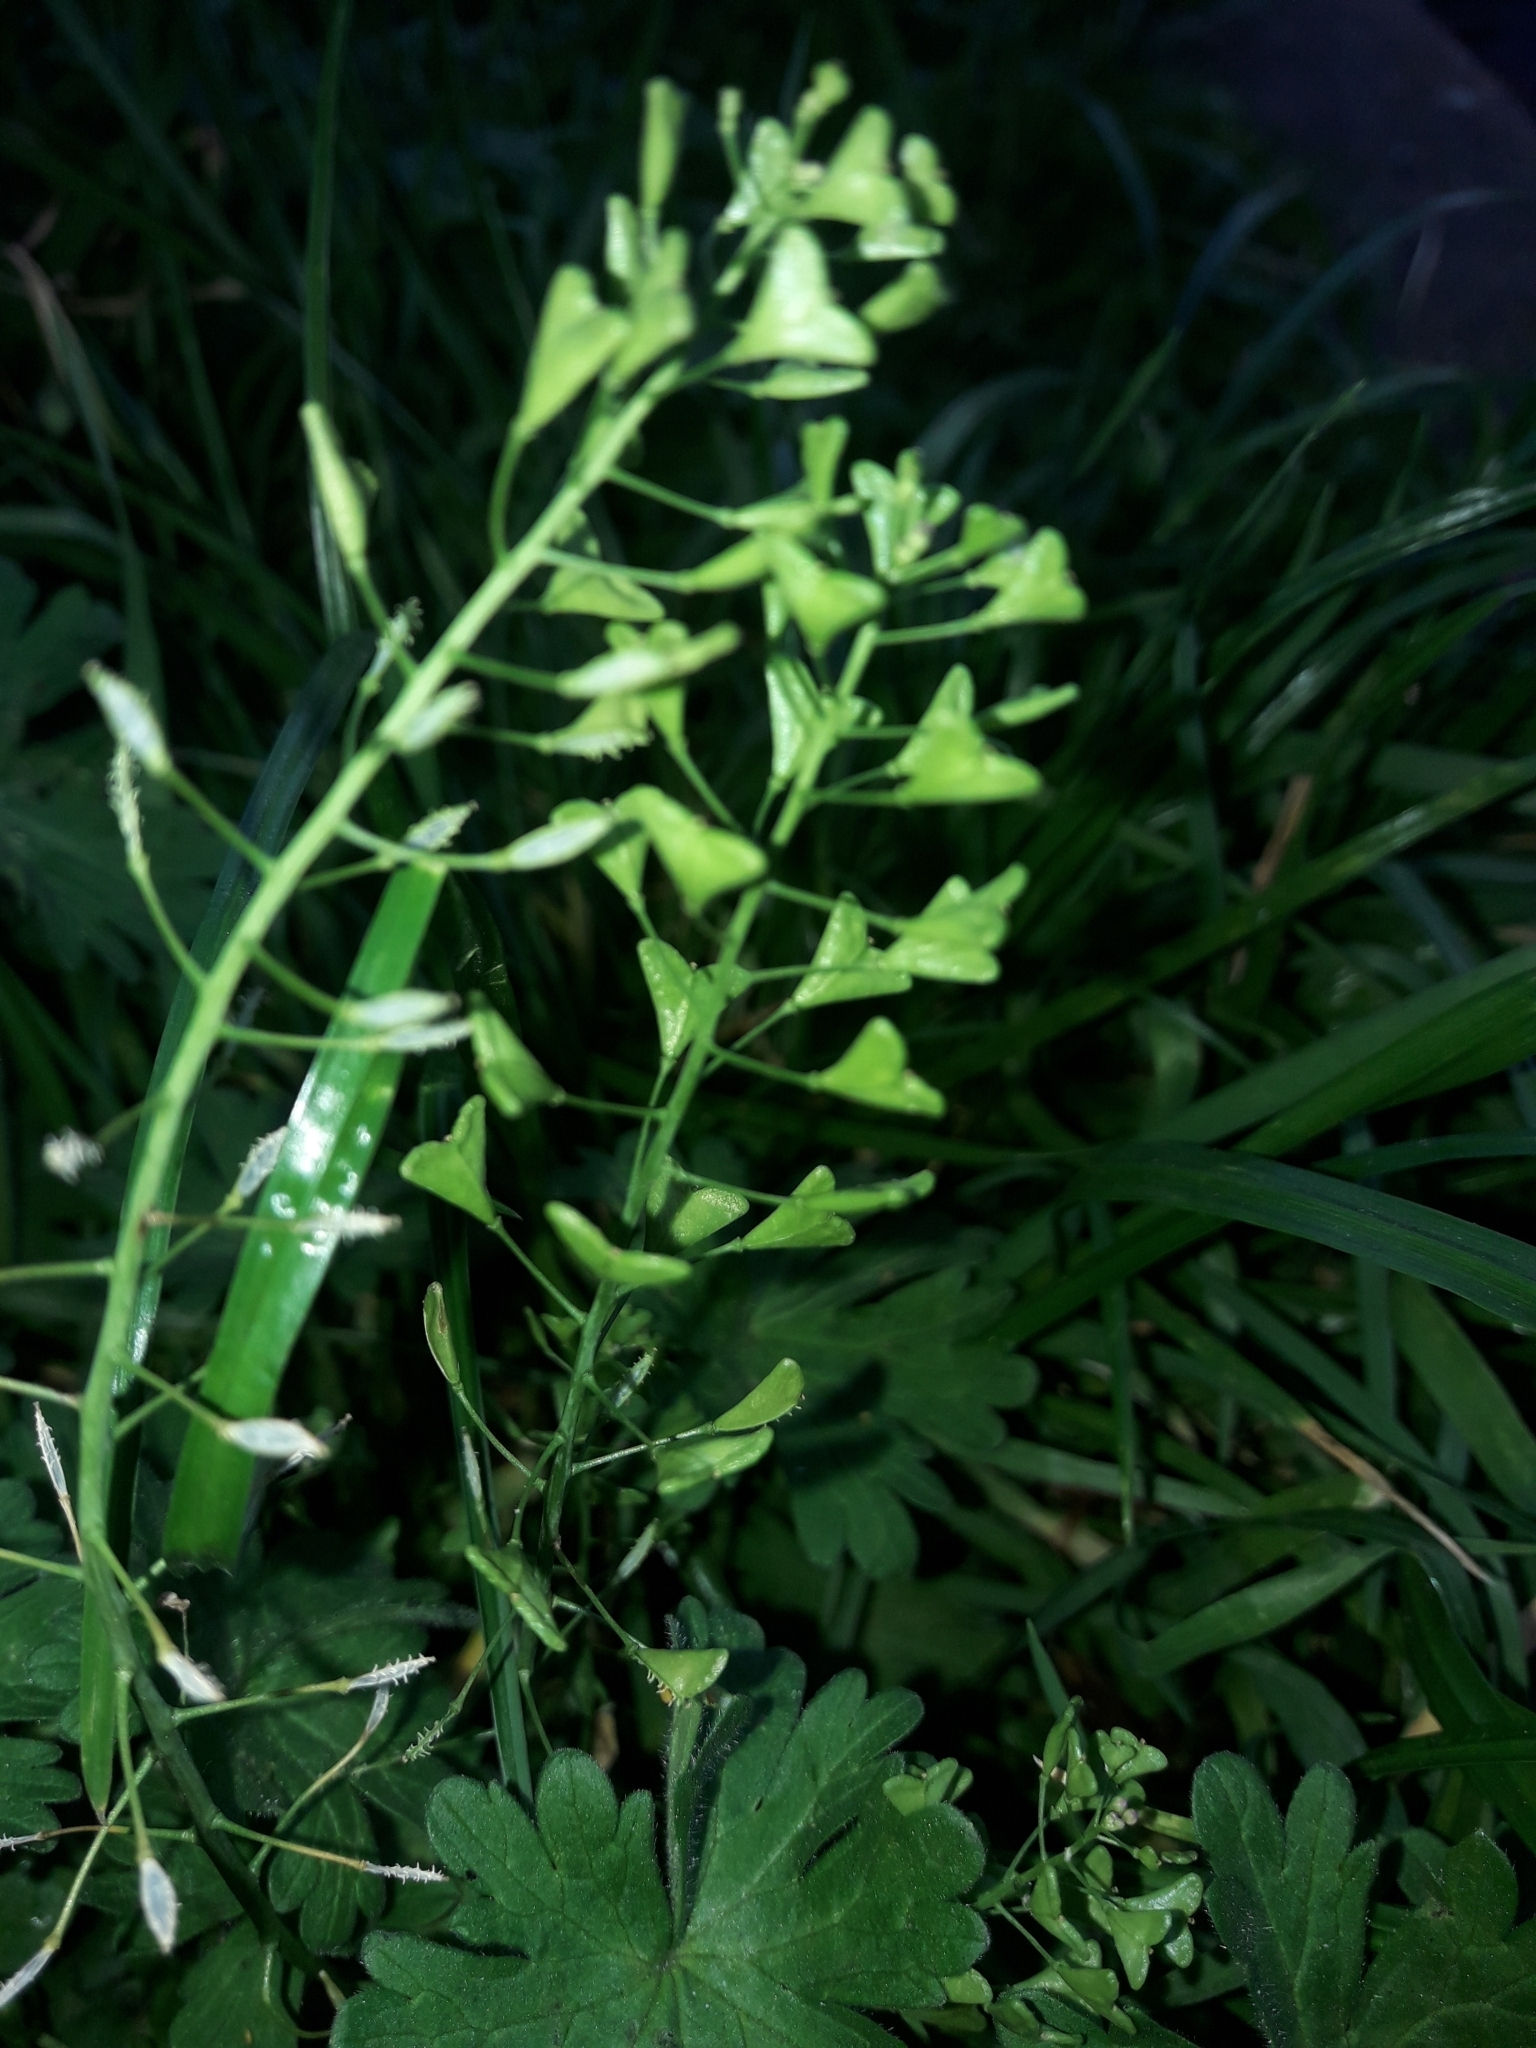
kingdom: Plantae
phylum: Tracheophyta
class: Magnoliopsida
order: Brassicales
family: Brassicaceae
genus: Capsella
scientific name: Capsella bursa-pastoris
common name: Shepherd's purse
